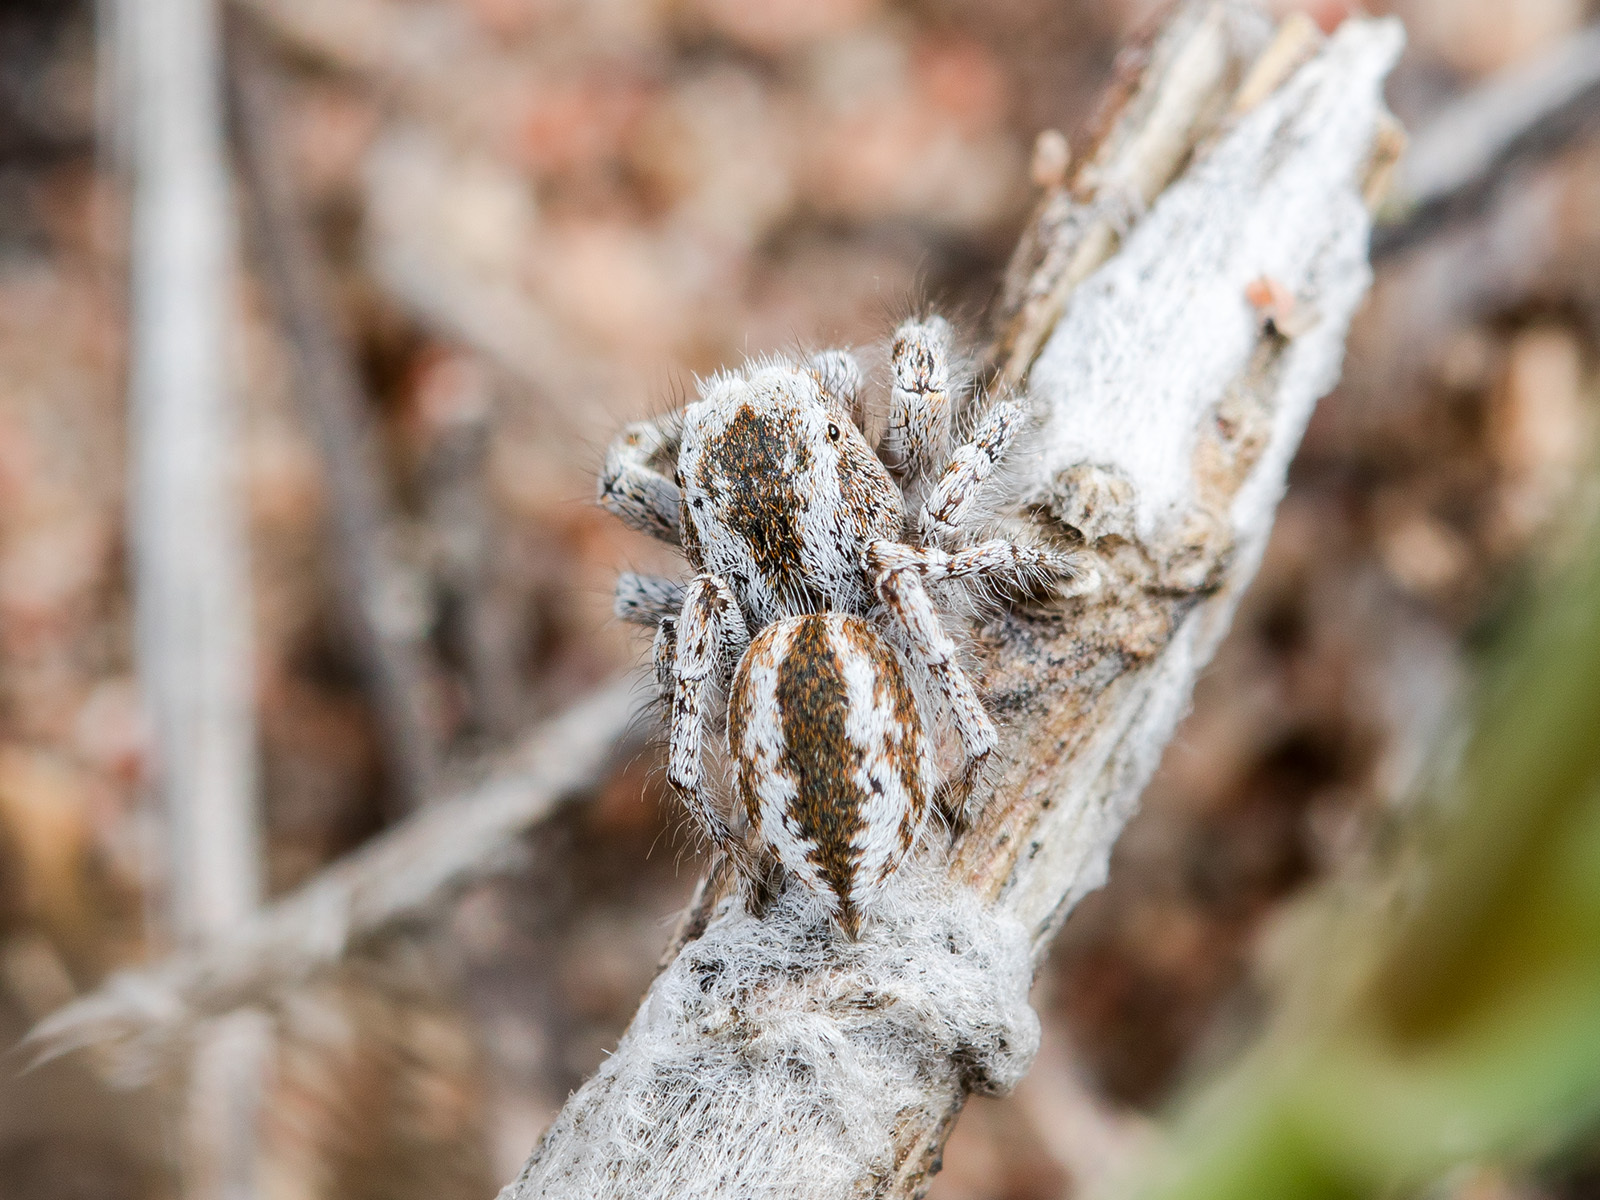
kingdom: Animalia
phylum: Arthropoda
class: Arachnida
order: Araneae
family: Salticidae
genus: Pseudomogrus
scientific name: Pseudomogrus vittatus
